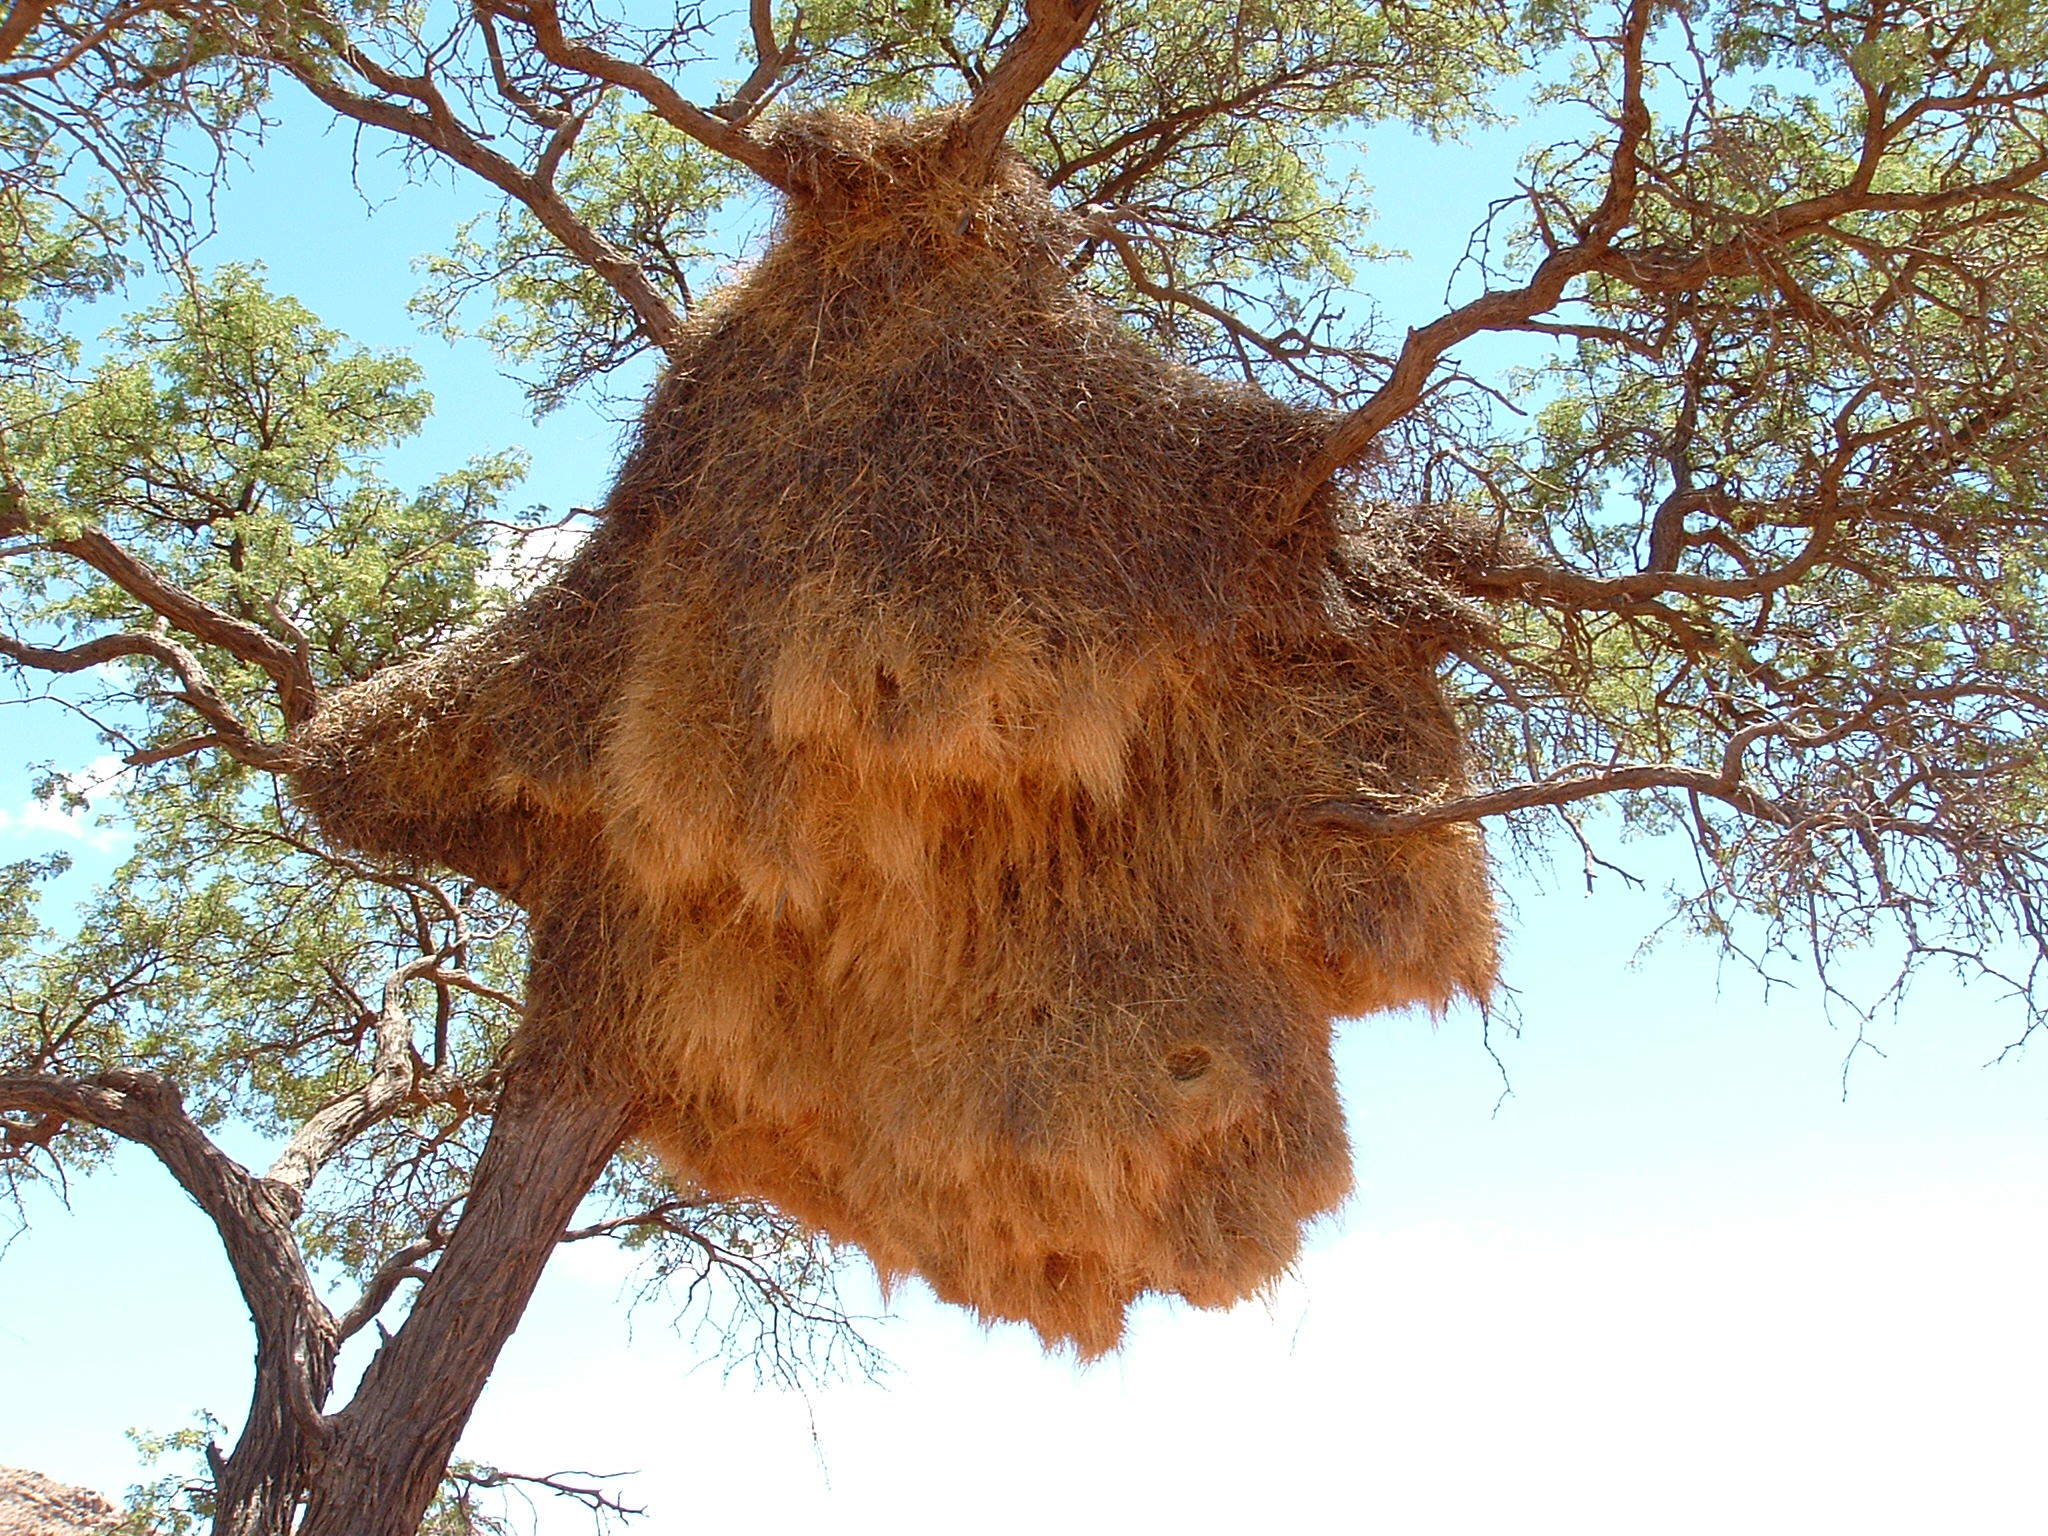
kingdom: Animalia
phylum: Chordata
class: Aves
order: Passeriformes
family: Passeridae
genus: Philetairus
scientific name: Philetairus socius
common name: Sociable weaver
